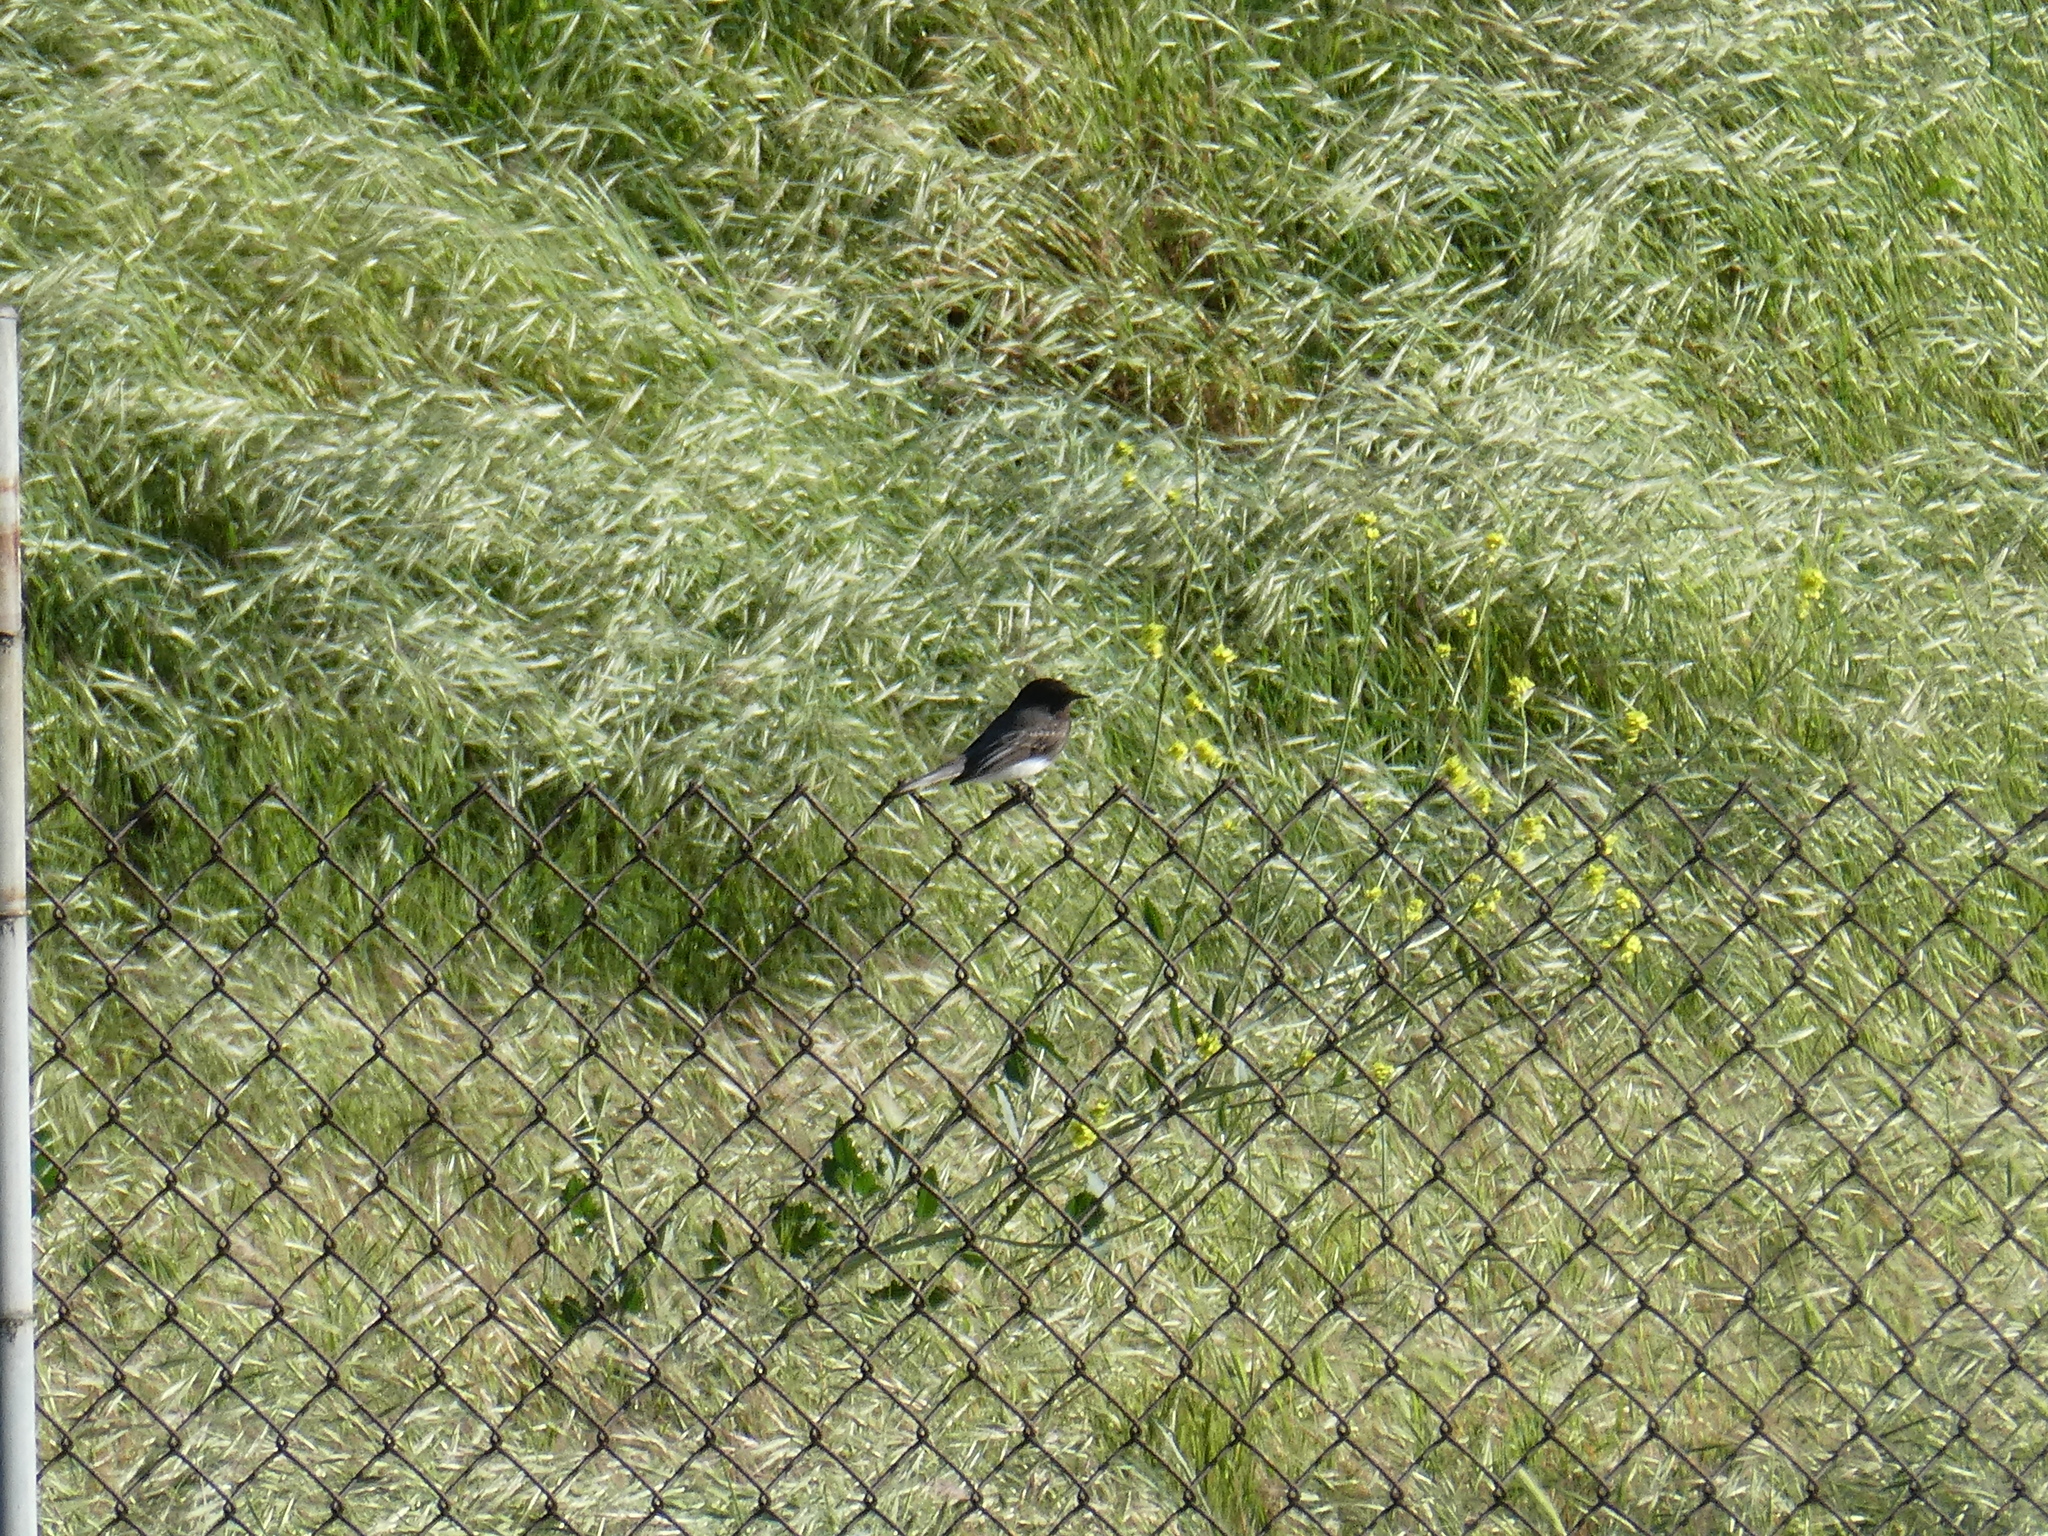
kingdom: Animalia
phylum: Chordata
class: Aves
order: Passeriformes
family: Tyrannidae
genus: Sayornis
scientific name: Sayornis nigricans
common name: Black phoebe
